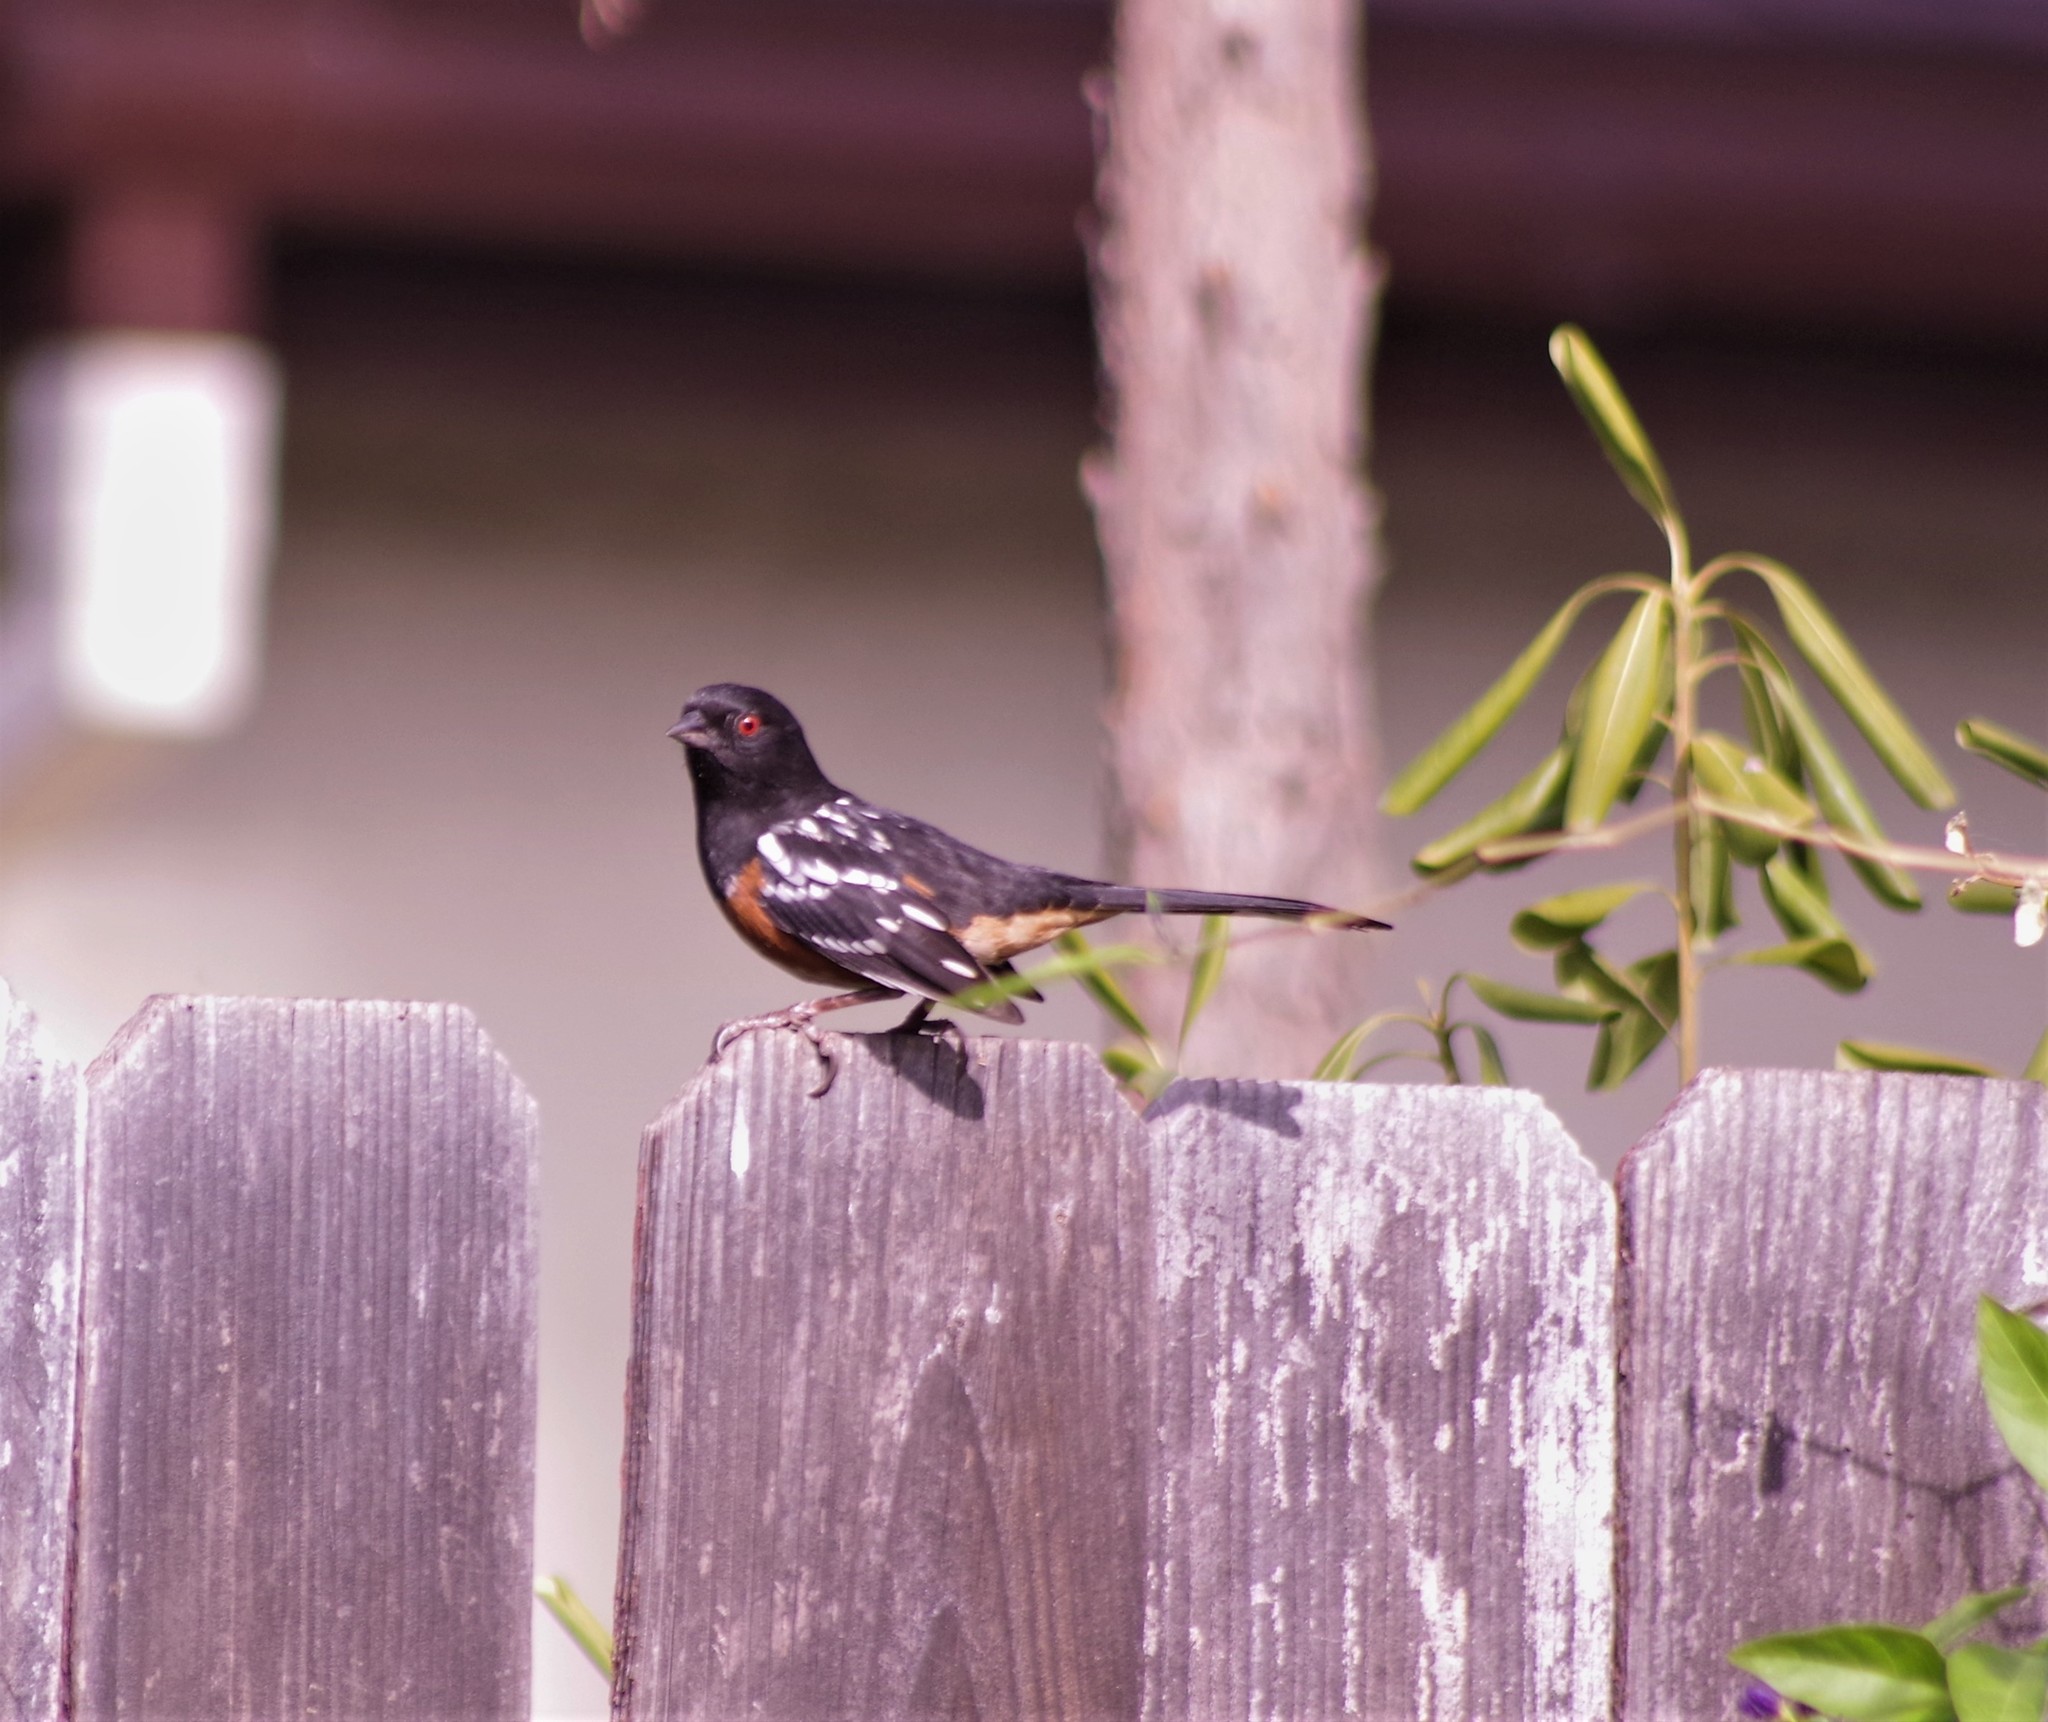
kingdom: Animalia
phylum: Chordata
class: Aves
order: Passeriformes
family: Passerellidae
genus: Pipilo
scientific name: Pipilo maculatus
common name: Spotted towhee
